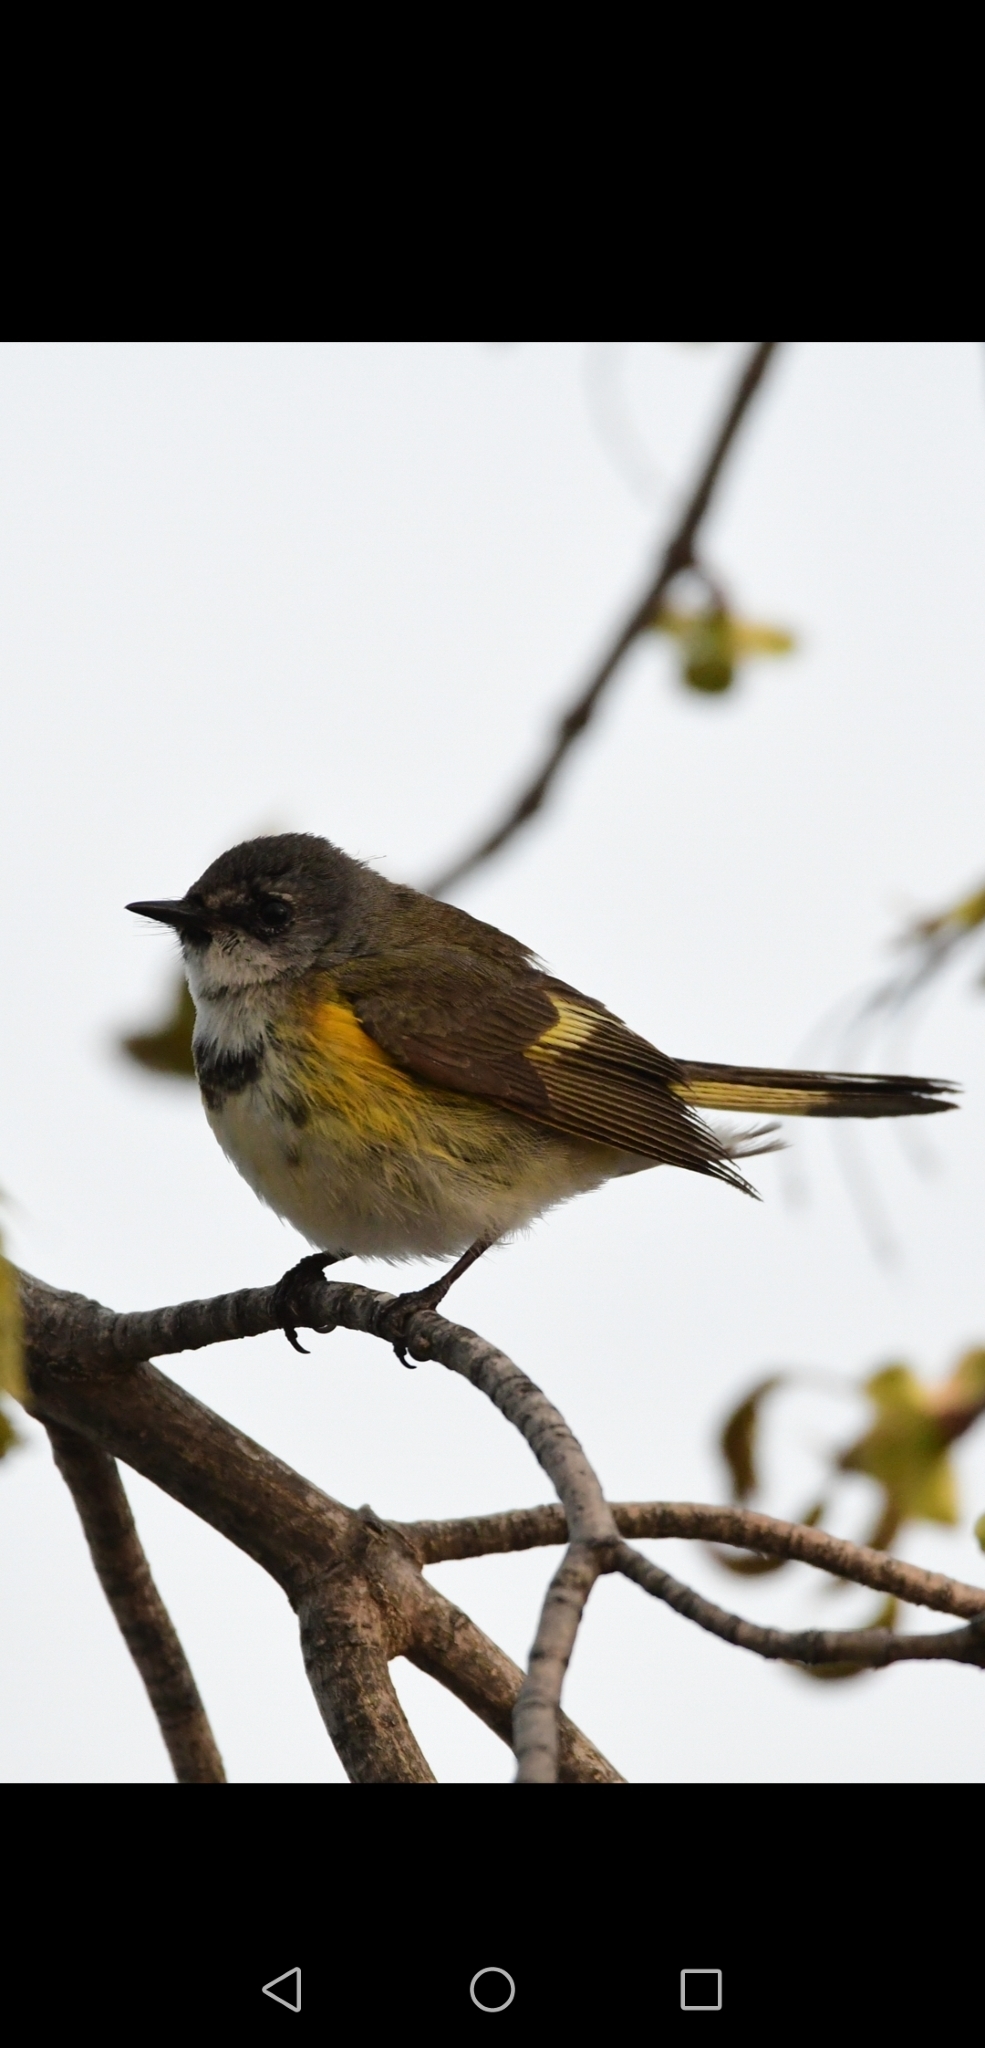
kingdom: Animalia
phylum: Chordata
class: Aves
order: Passeriformes
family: Parulidae
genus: Setophaga
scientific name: Setophaga palmarum
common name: Palm warbler
